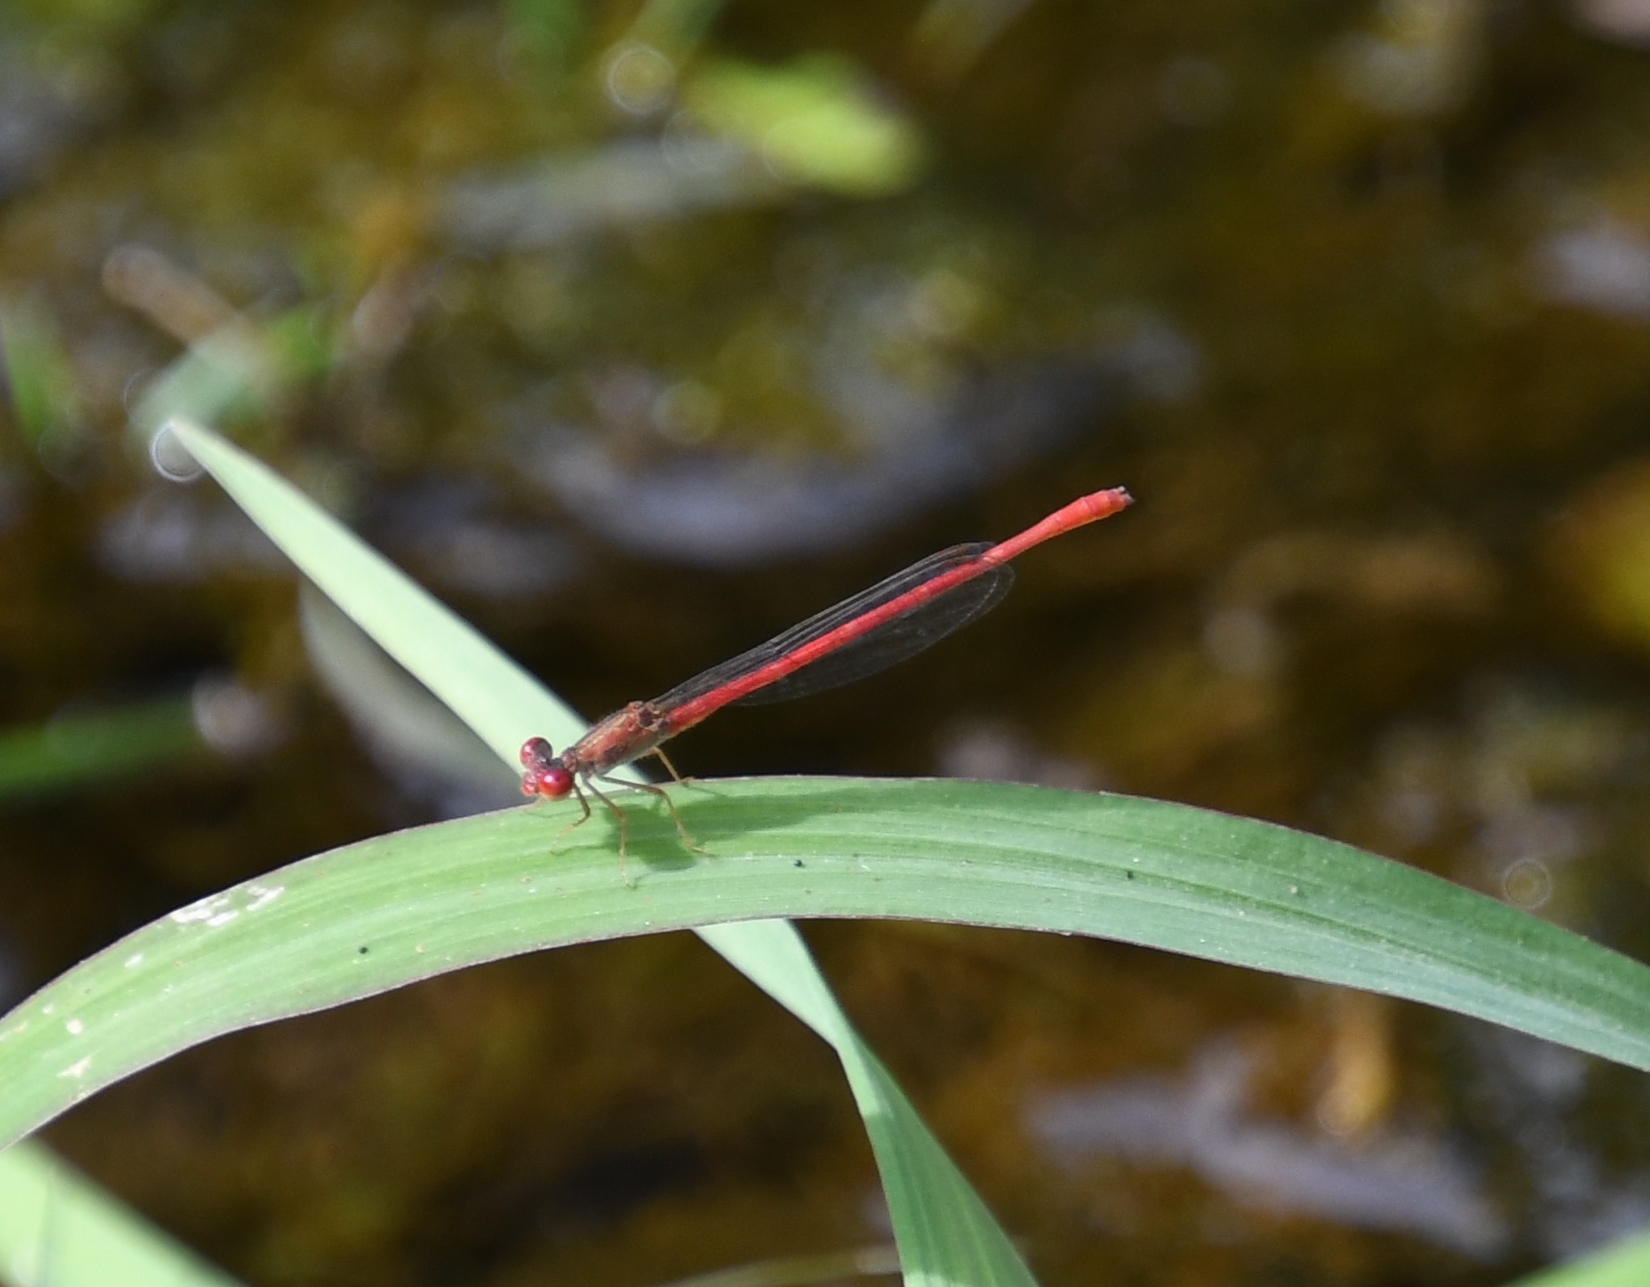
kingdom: Animalia
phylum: Arthropoda
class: Insecta
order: Odonata
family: Coenagrionidae
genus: Telebasis
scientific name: Telebasis salva
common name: Desert firetail
